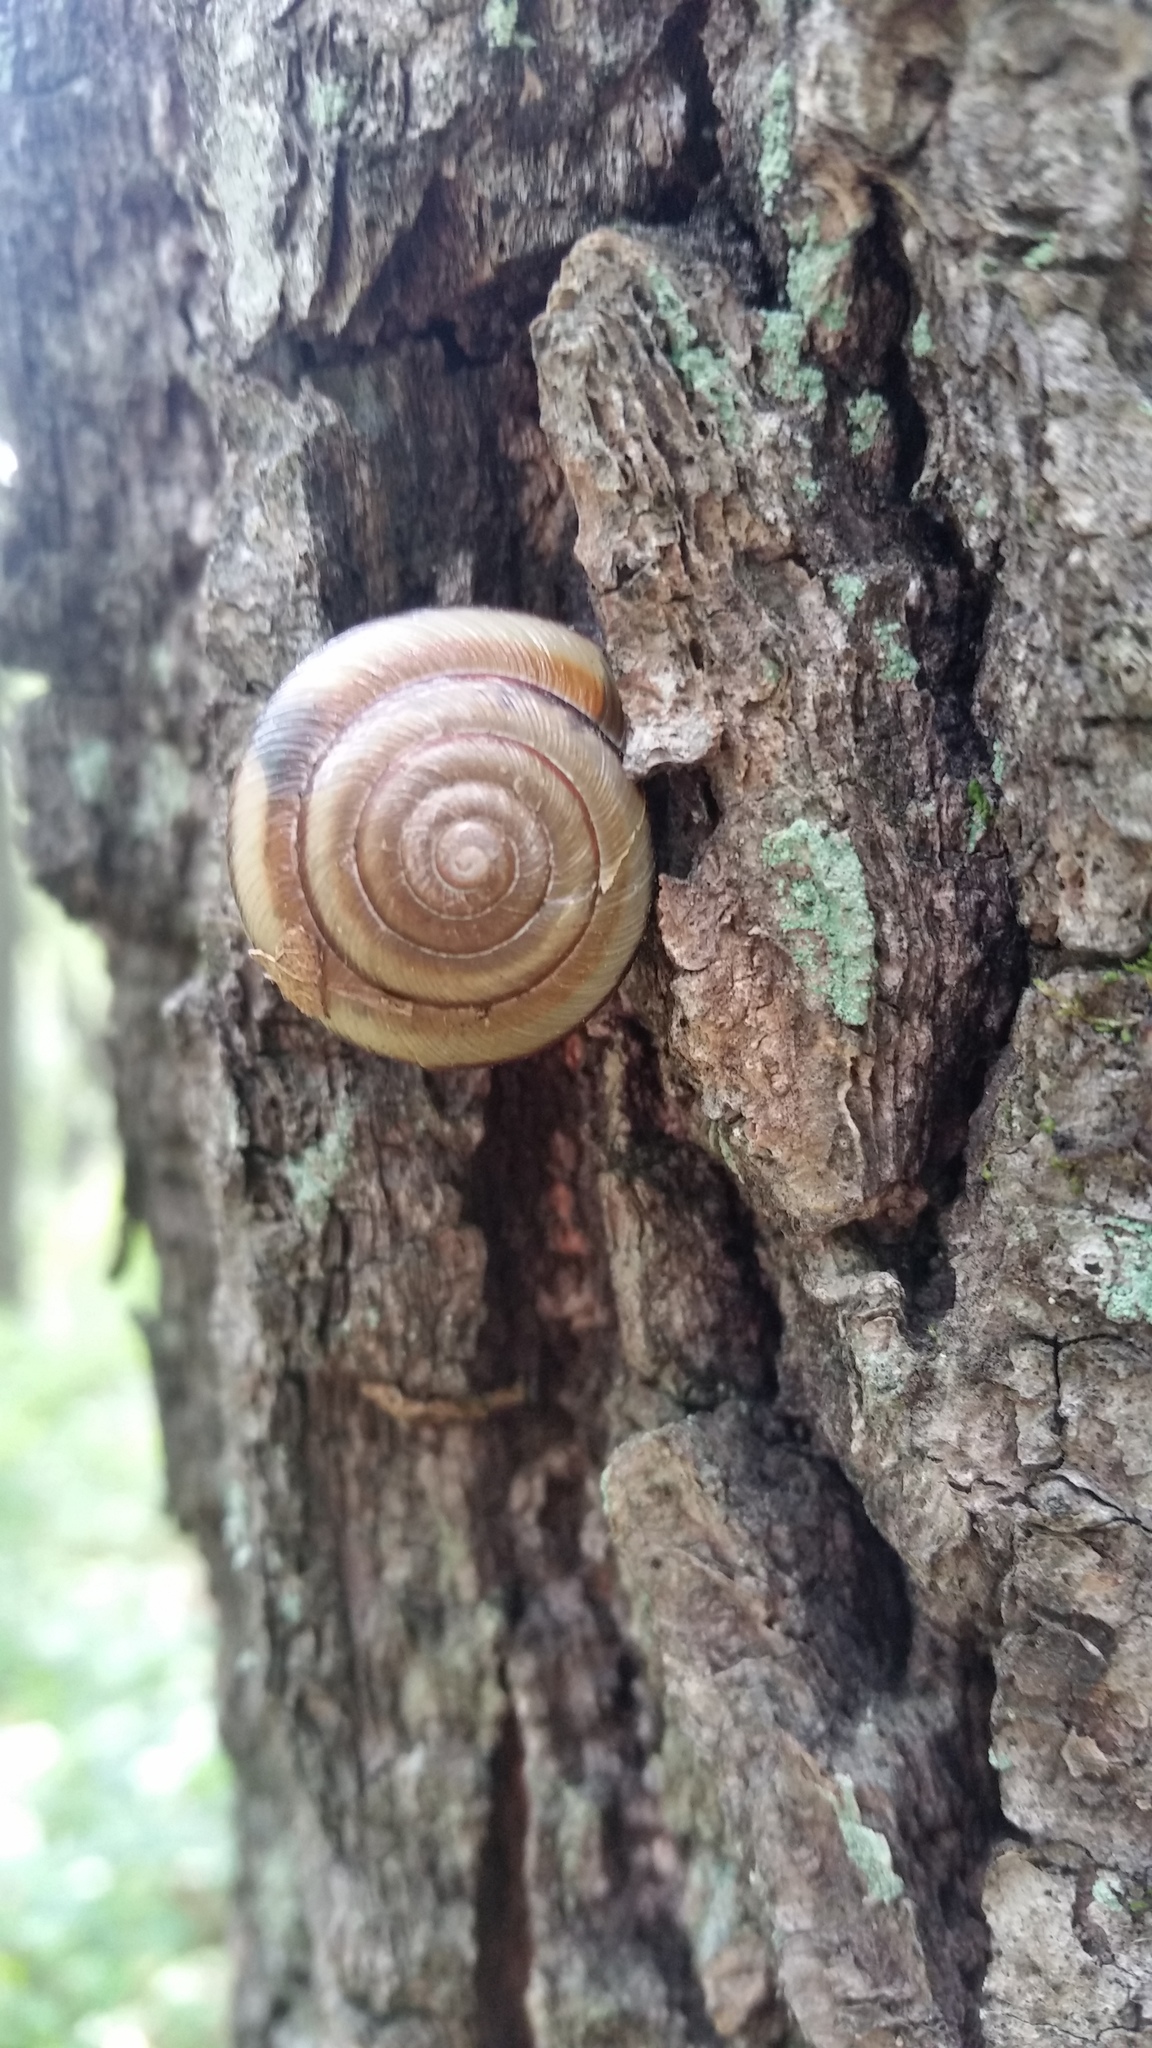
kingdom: Animalia
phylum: Mollusca
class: Gastropoda
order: Stylommatophora
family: Camaenidae
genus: Karaftohelix
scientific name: Karaftohelix maackii
